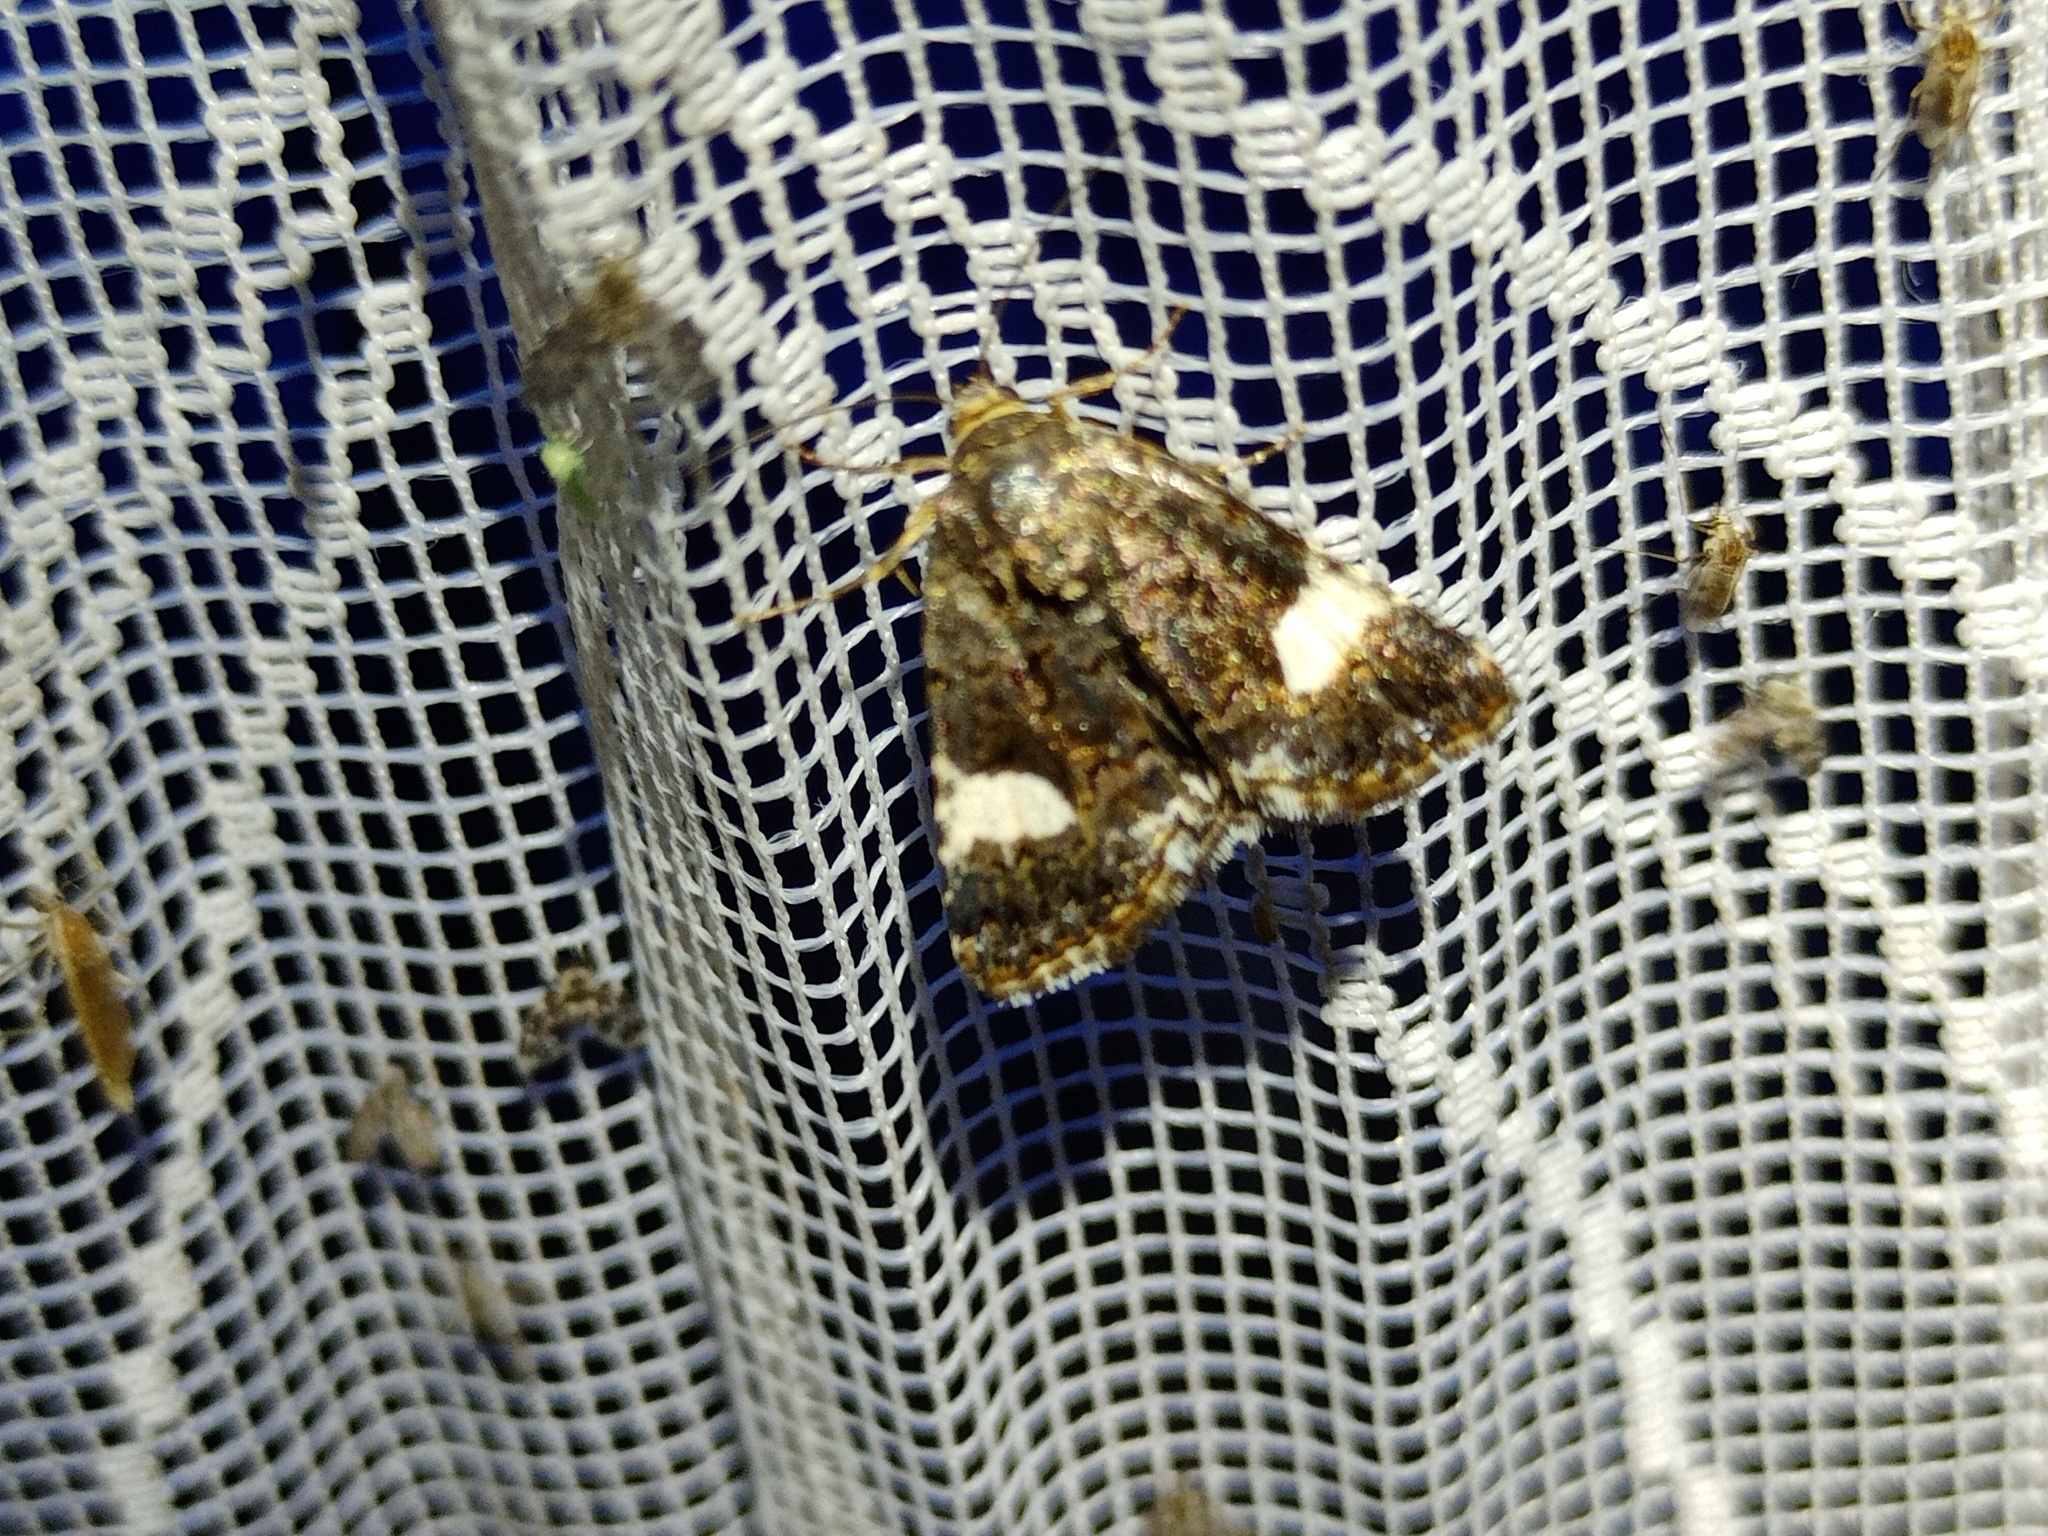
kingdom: Animalia
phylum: Arthropoda
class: Insecta
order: Lepidoptera
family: Erebidae
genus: Tyta
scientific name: Tyta luctuosa
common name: Four-spotted
